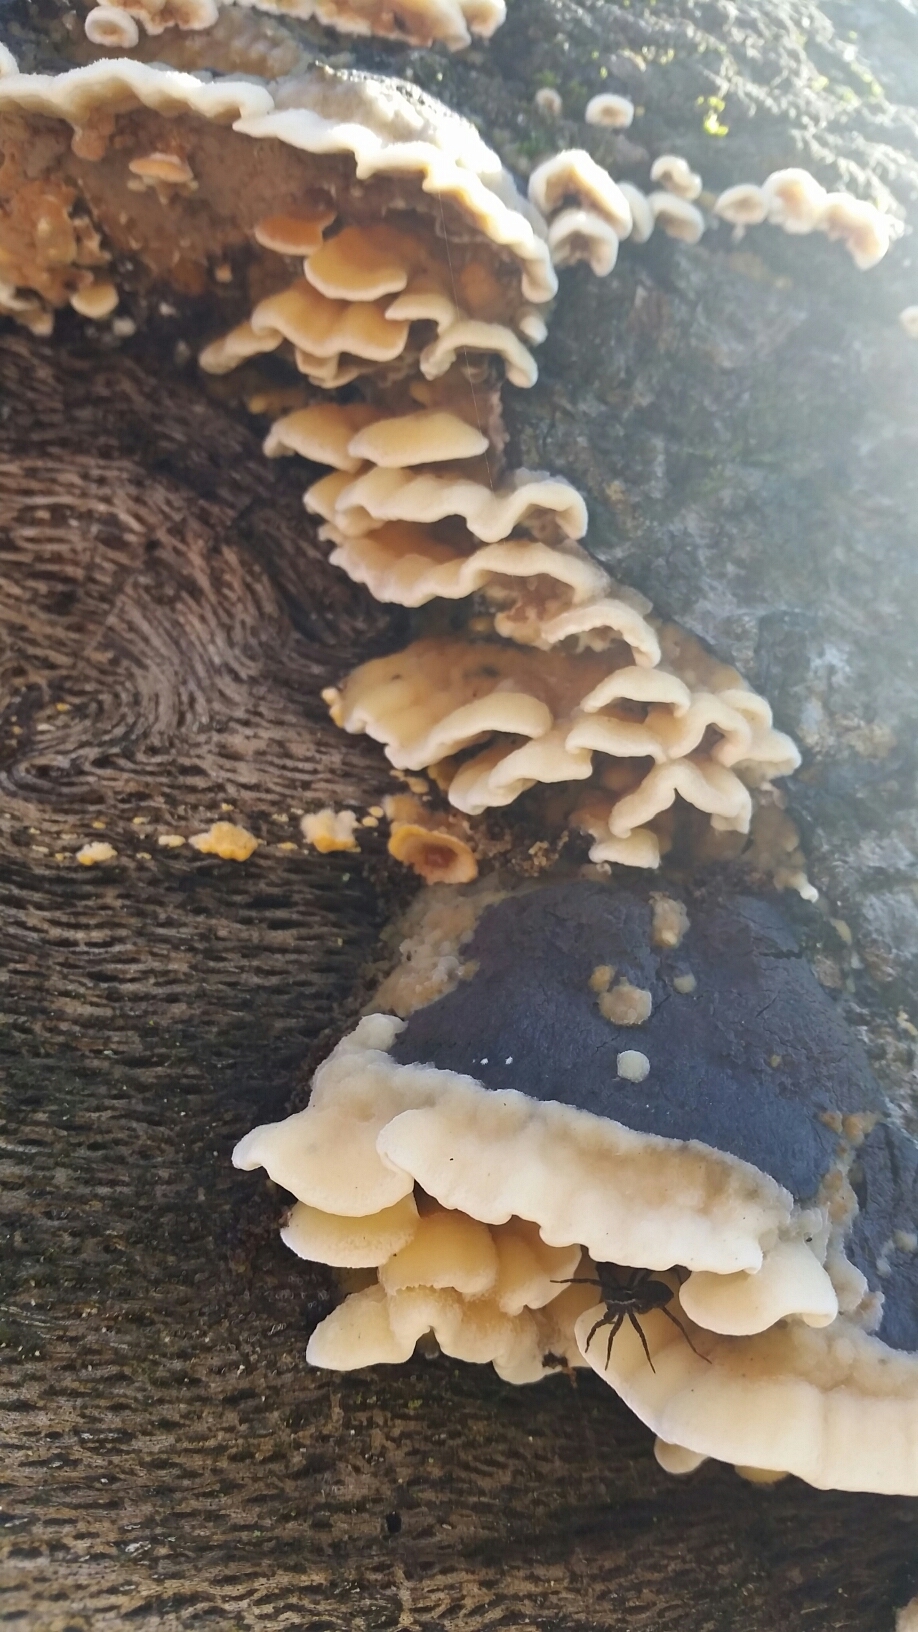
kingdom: Fungi
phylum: Basidiomycota
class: Agaricomycetes
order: Polyporales
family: Irpicaceae
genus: Vitreoporus
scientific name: Vitreoporus dichrous
